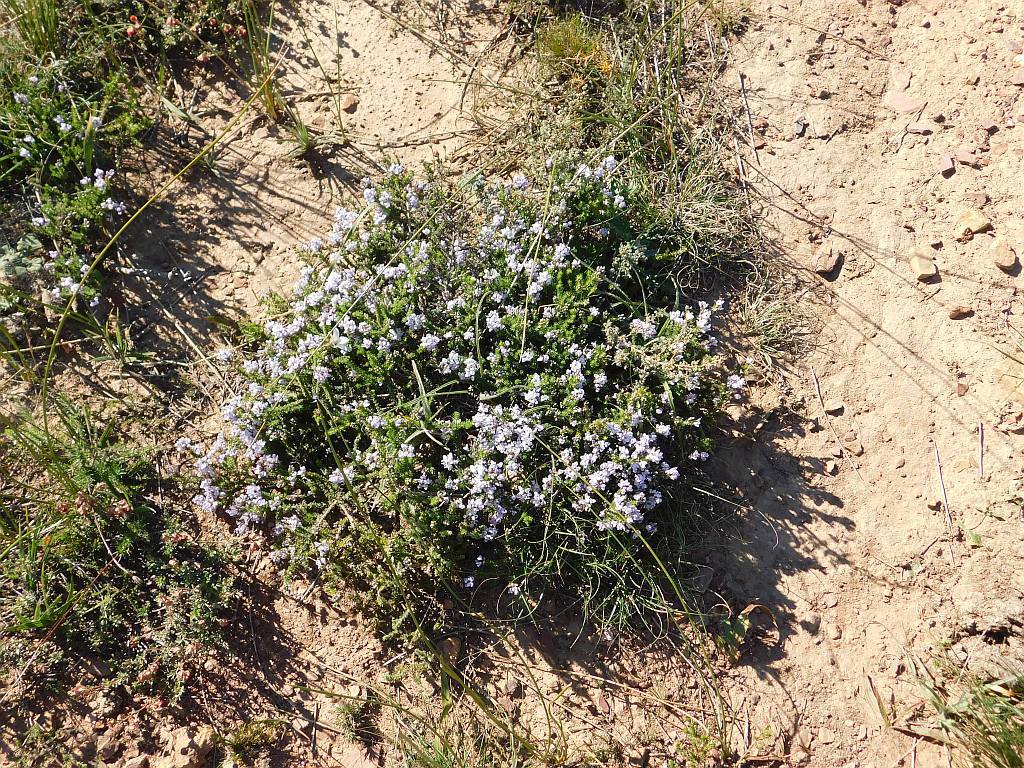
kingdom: Plantae
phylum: Tracheophyta
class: Magnoliopsida
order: Fabales
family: Fabaceae
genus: Aspalathus
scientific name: Aspalathus nigra
